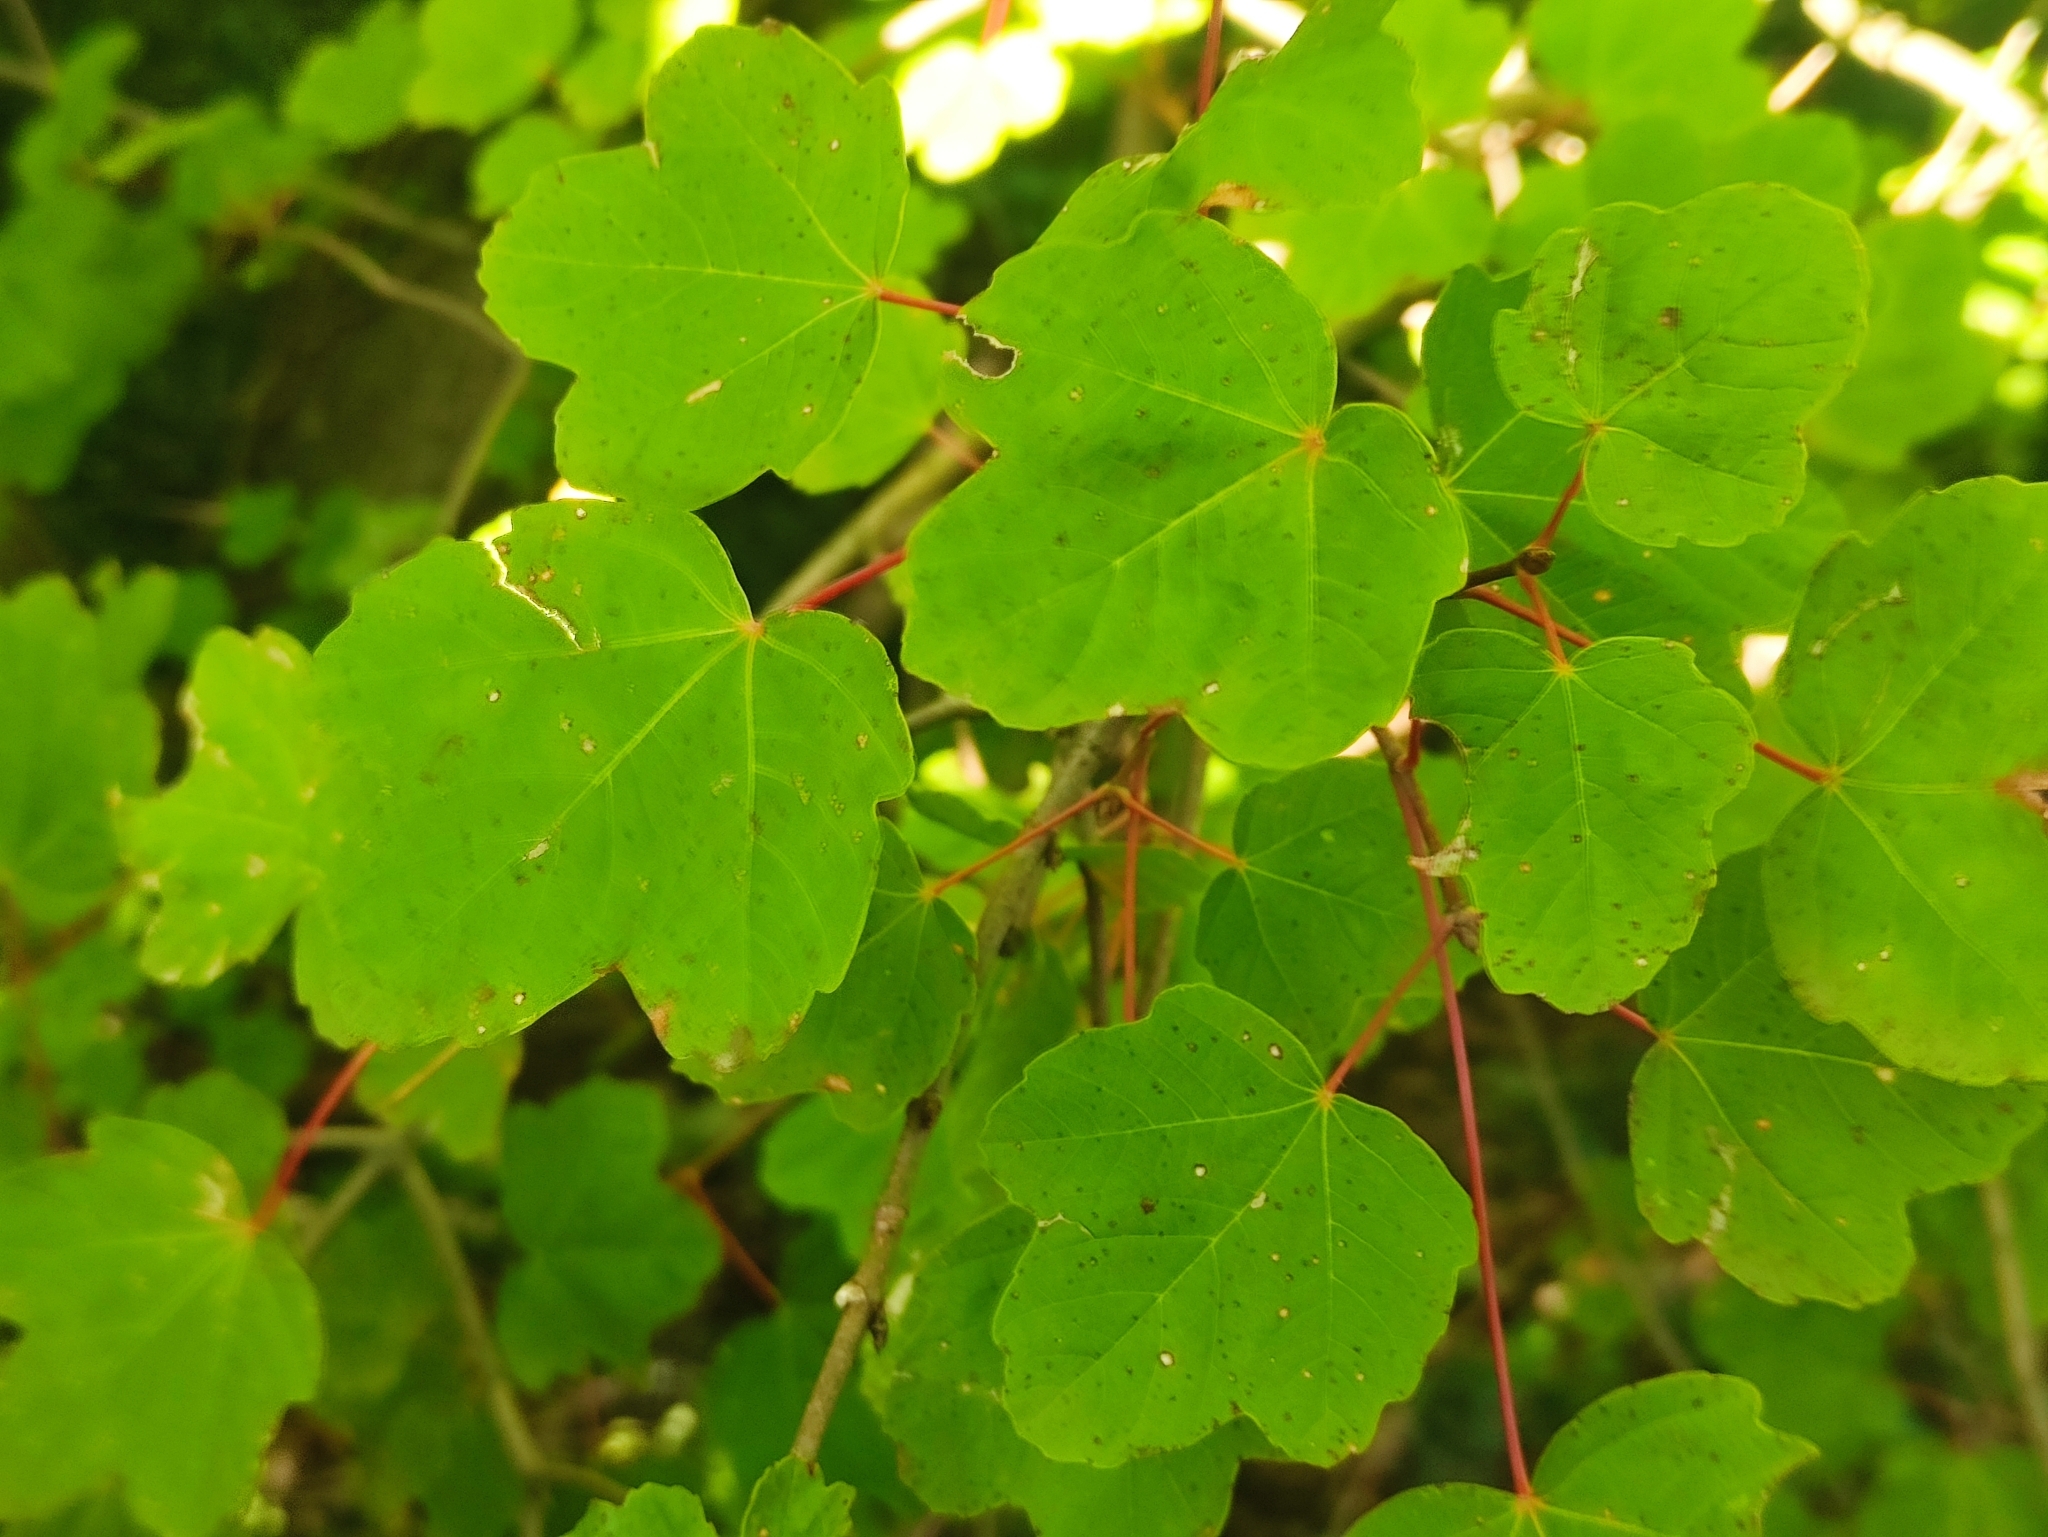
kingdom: Plantae
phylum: Tracheophyta
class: Magnoliopsida
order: Sapindales
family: Sapindaceae
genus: Acer
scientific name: Acer opalus
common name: Italian maple
